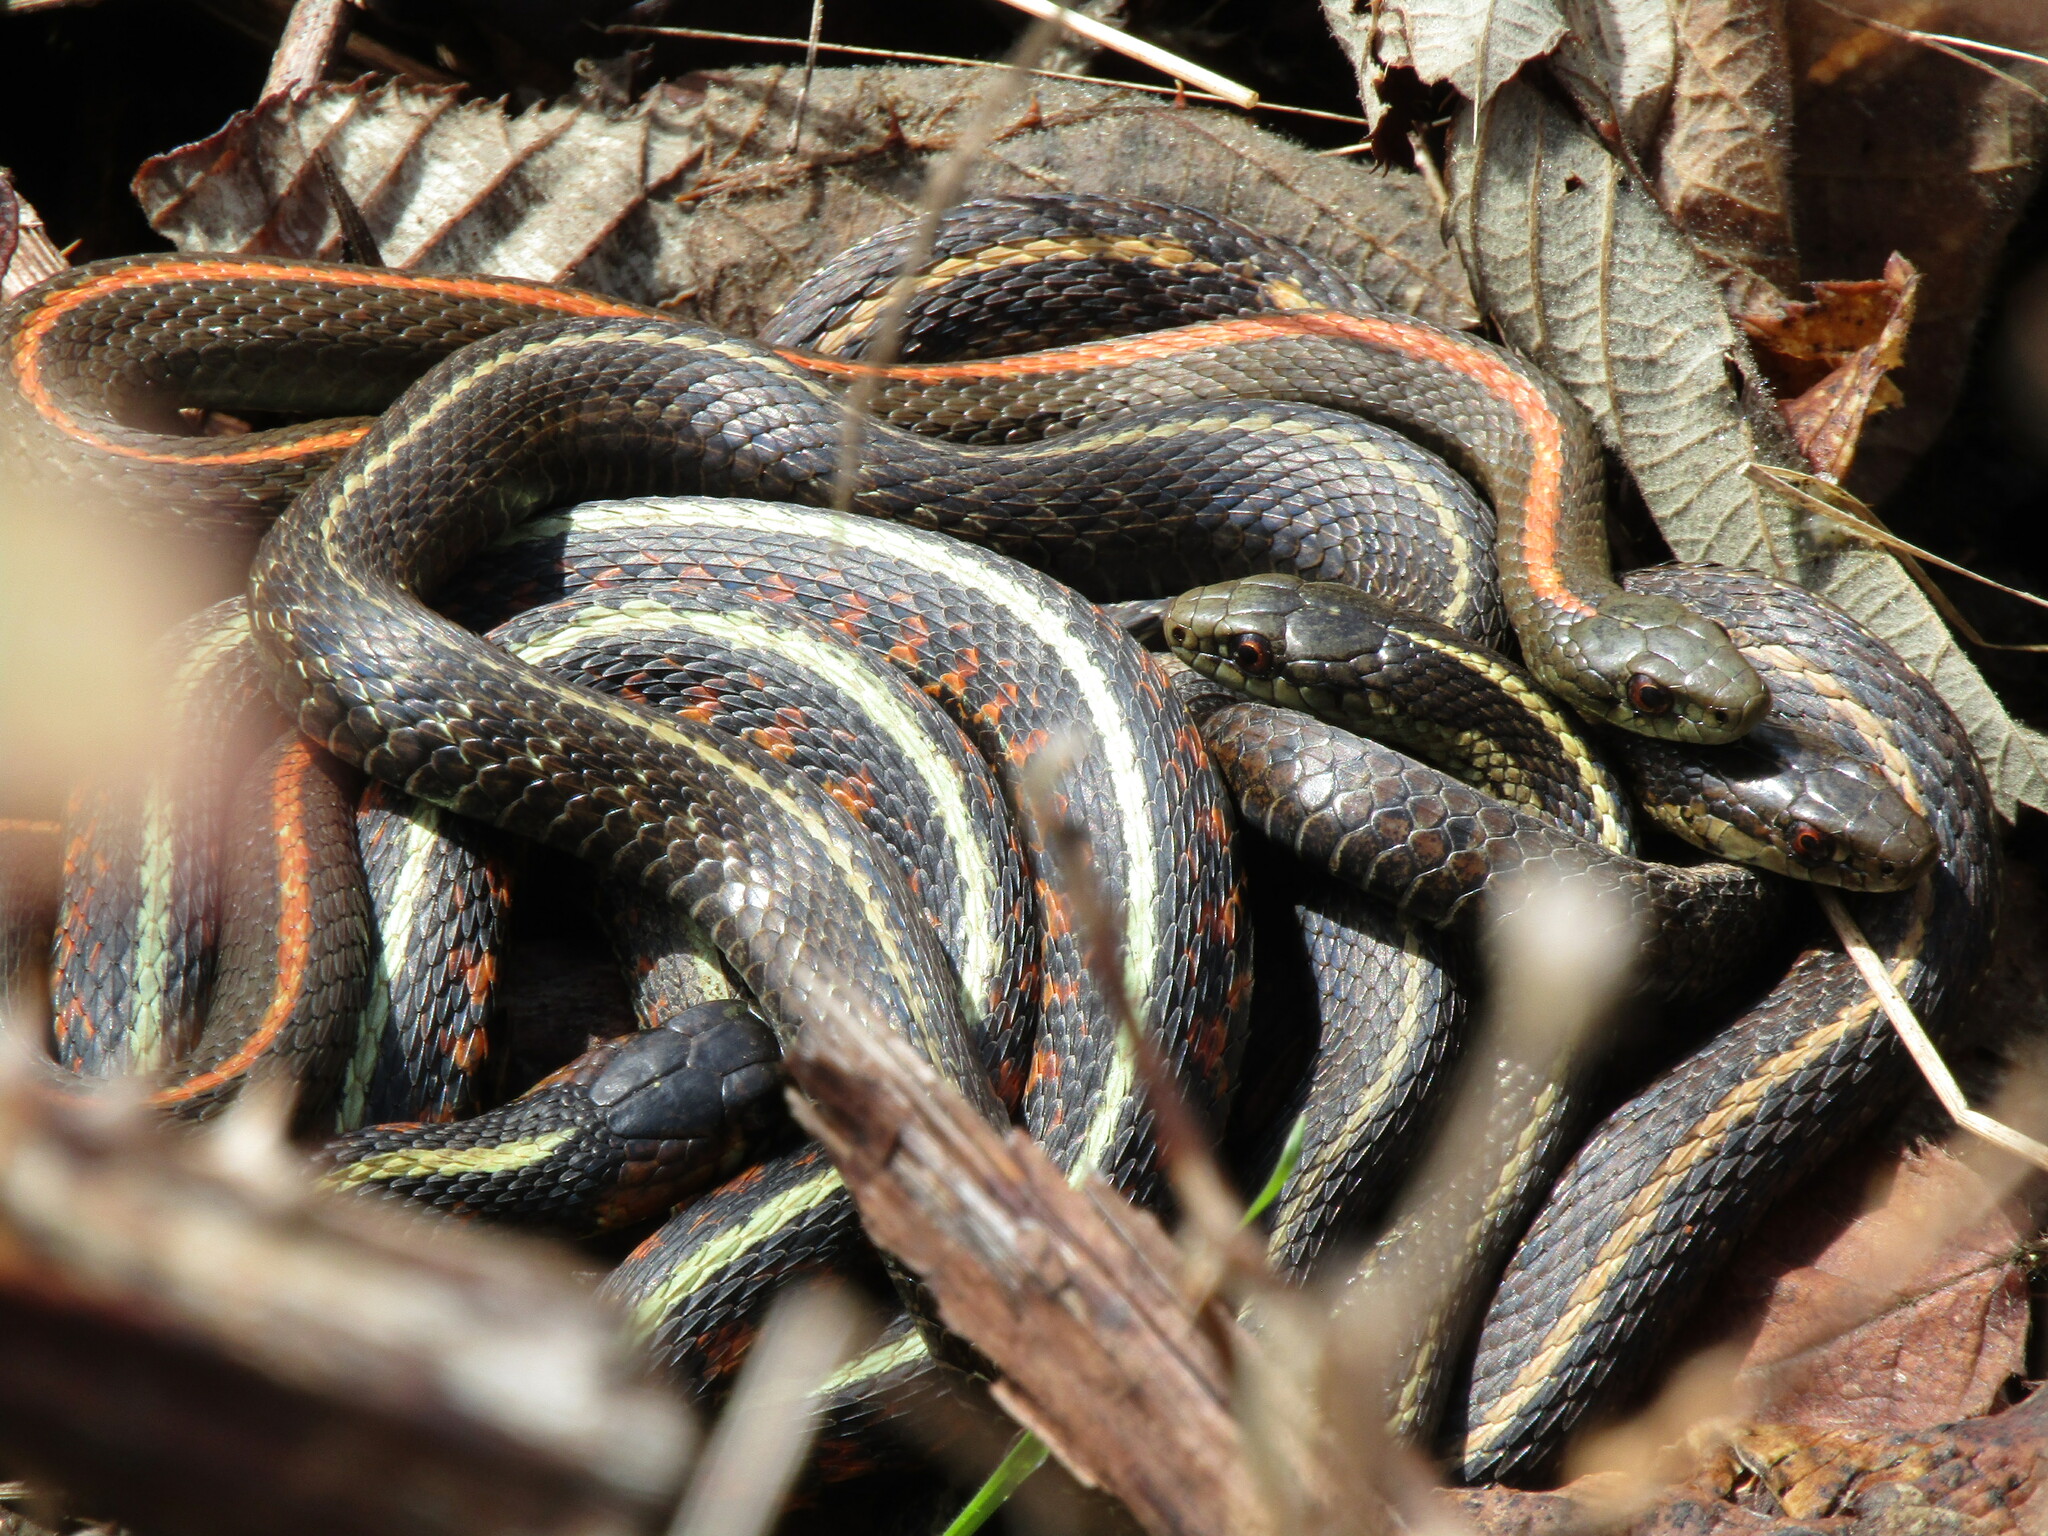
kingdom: Animalia
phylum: Chordata
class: Squamata
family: Colubridae
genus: Thamnophis
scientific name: Thamnophis sirtalis
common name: Common garter snake
